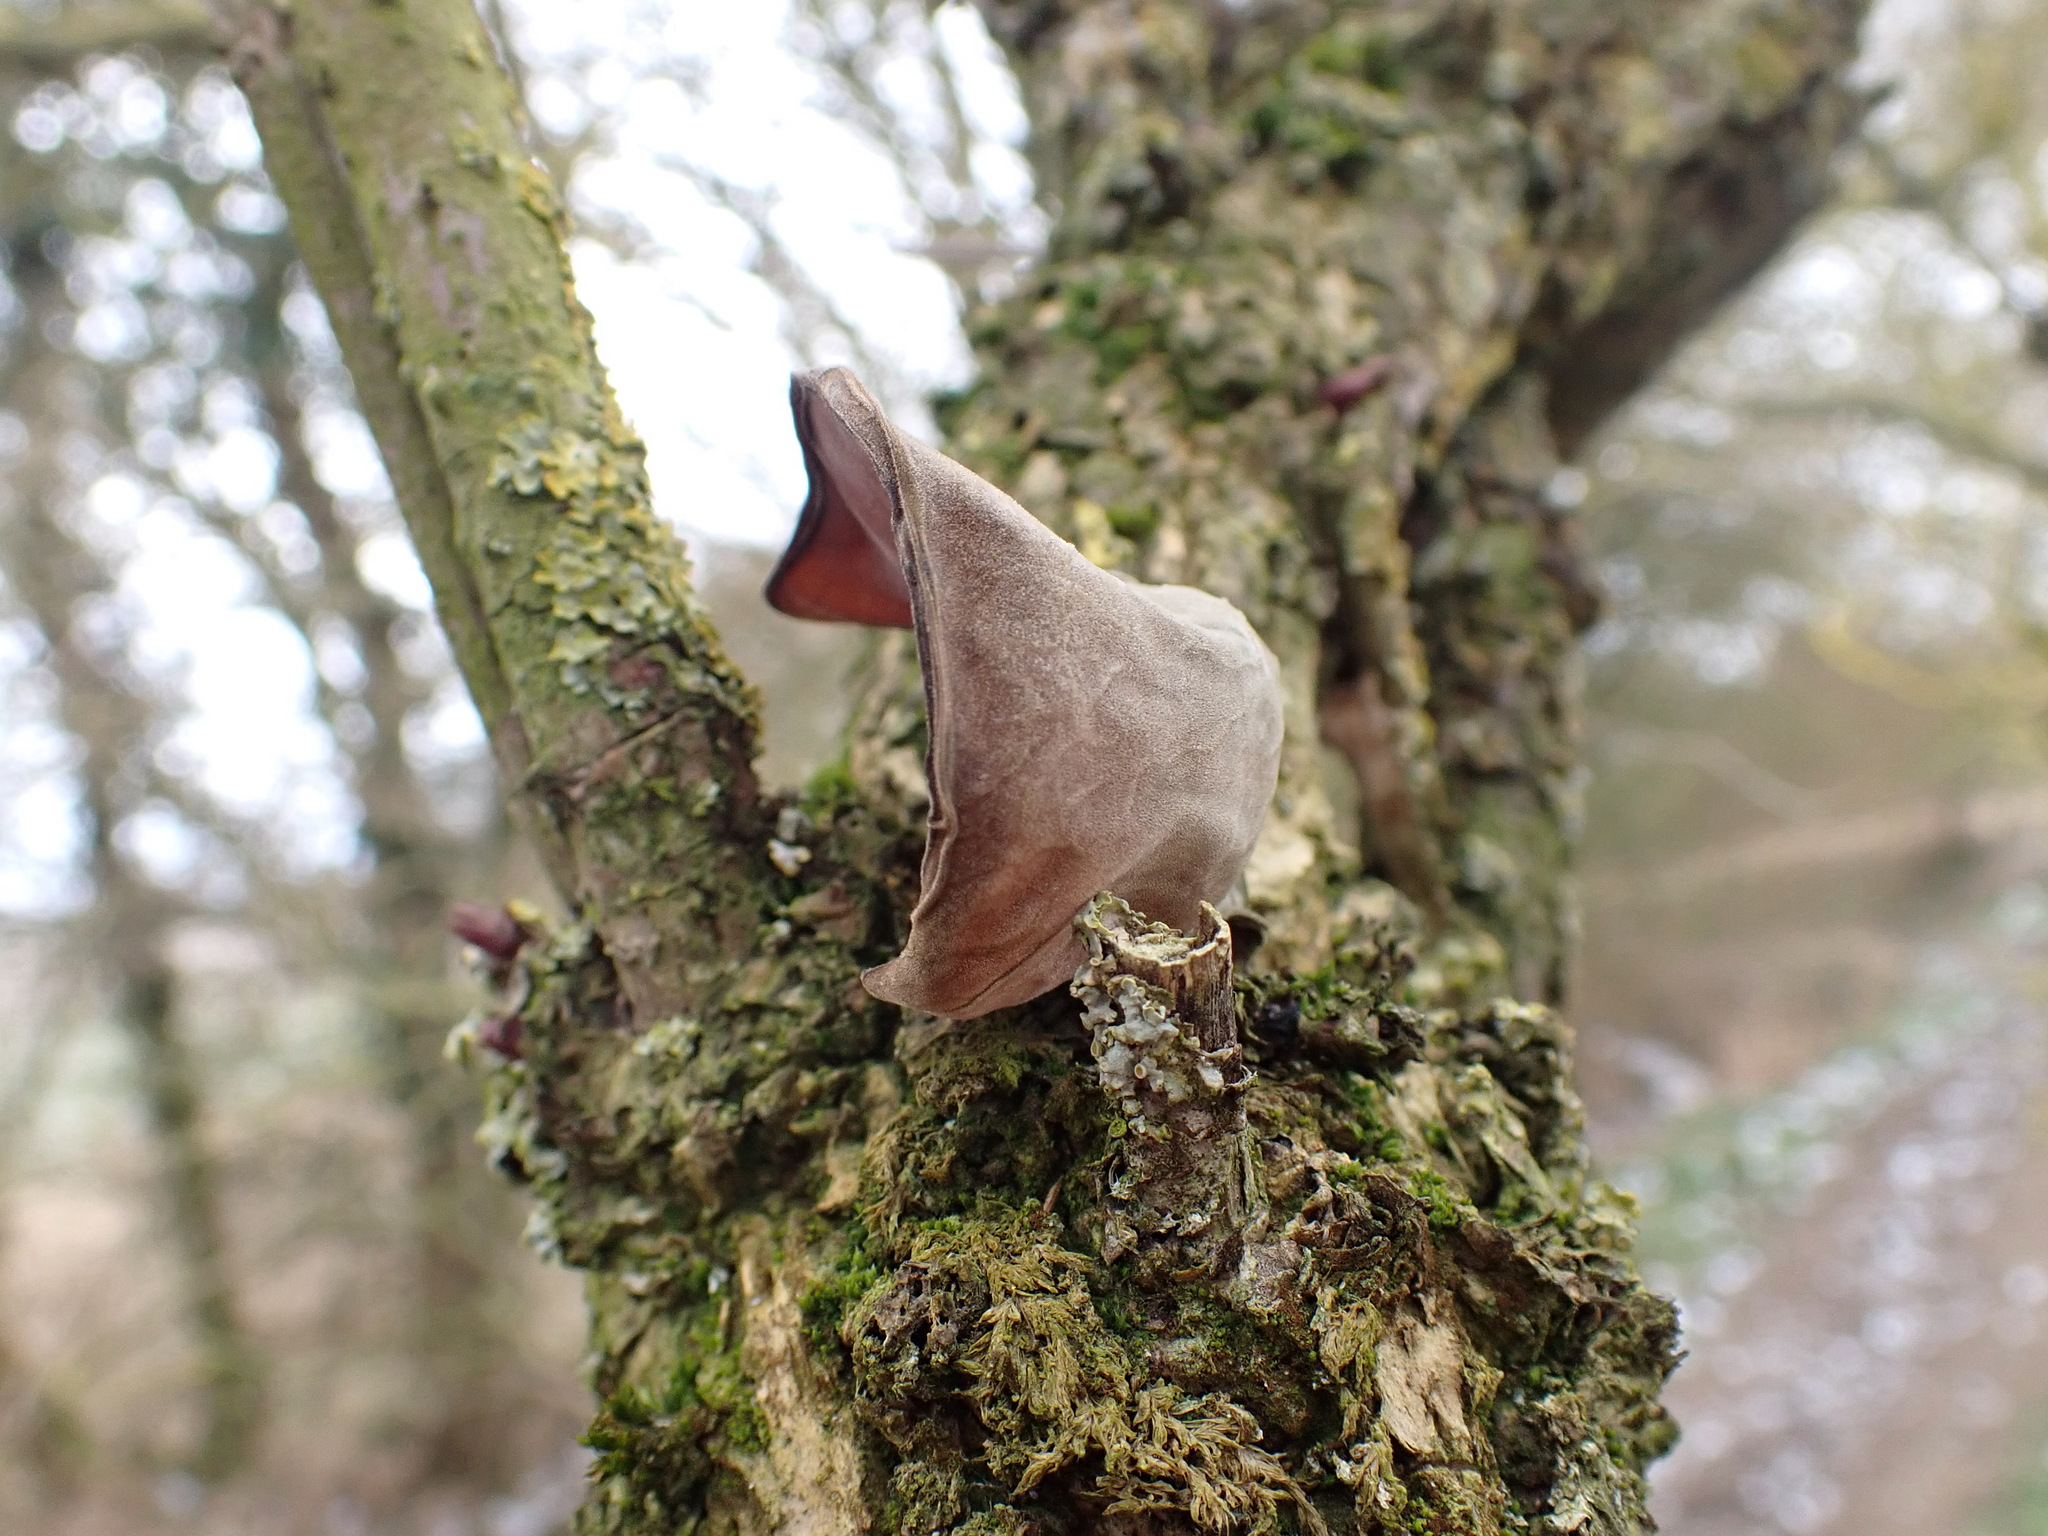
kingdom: Fungi
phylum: Basidiomycota
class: Agaricomycetes
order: Auriculariales
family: Auriculariaceae
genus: Auricularia
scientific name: Auricularia auricula-judae
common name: Jelly ear
